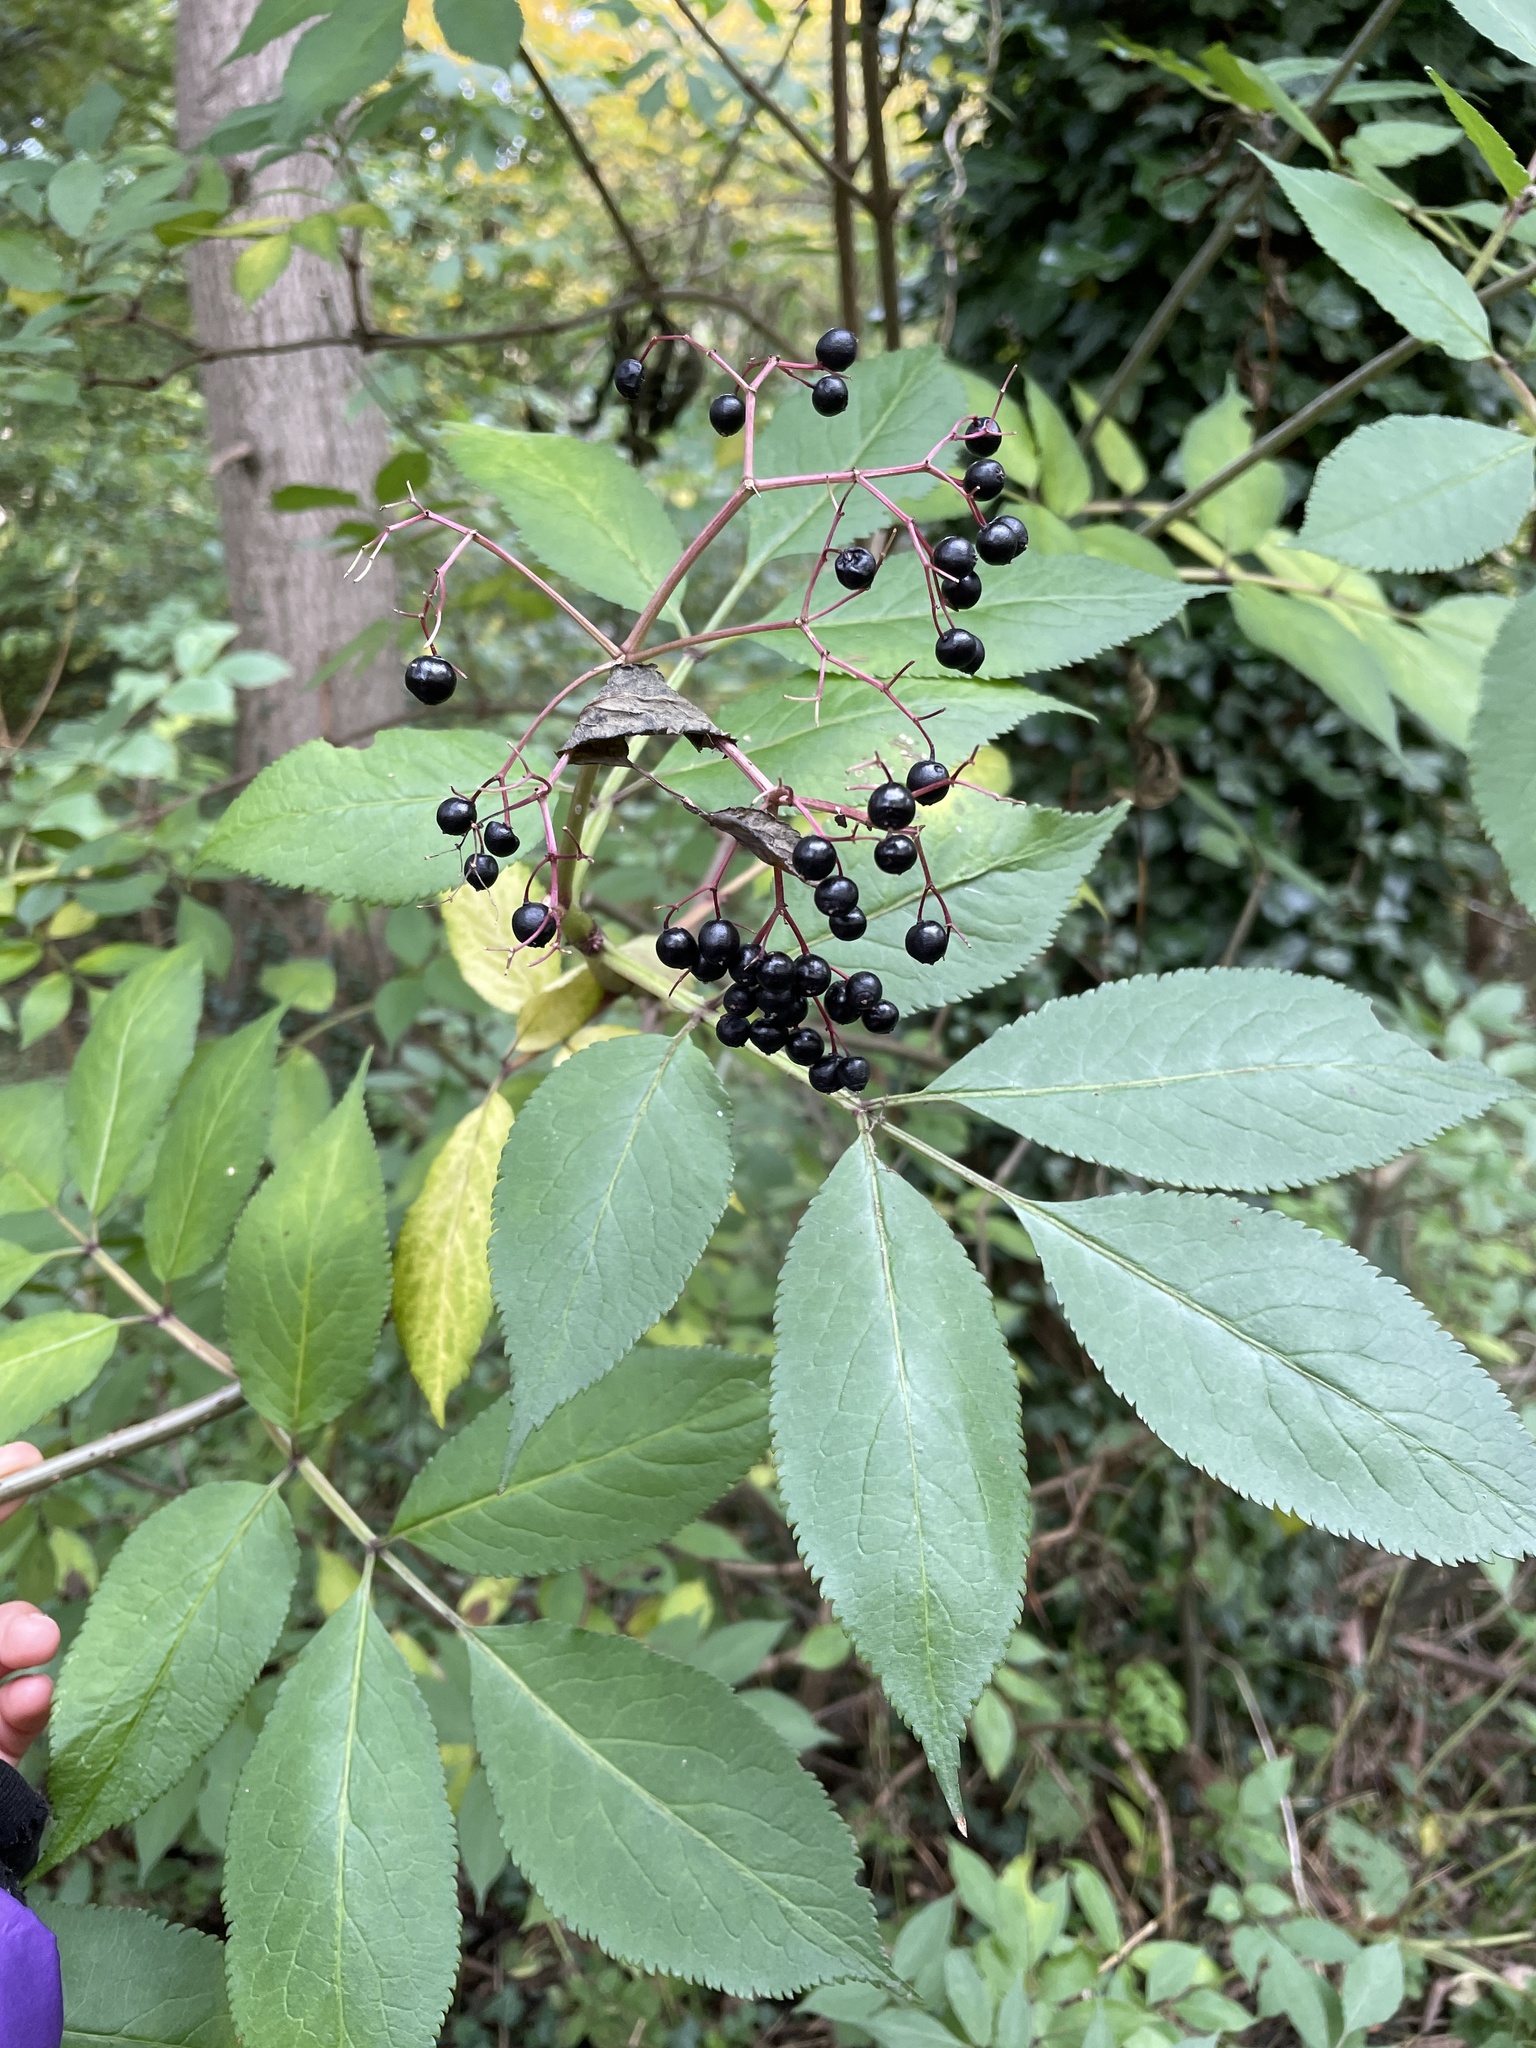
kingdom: Plantae
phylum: Tracheophyta
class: Magnoliopsida
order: Dipsacales
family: Viburnaceae
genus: Sambucus
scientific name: Sambucus nigra
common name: Elder
